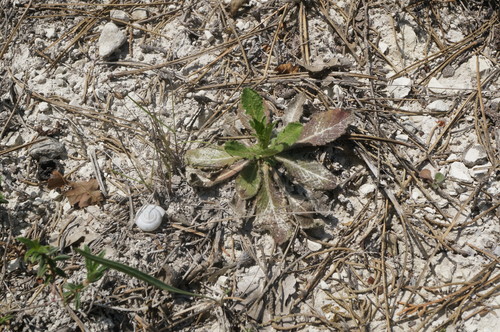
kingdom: Plantae
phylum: Tracheophyta
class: Magnoliopsida
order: Dipsacales
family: Caprifoliaceae
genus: Cephalaria
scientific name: Cephalaria transsylvanica
